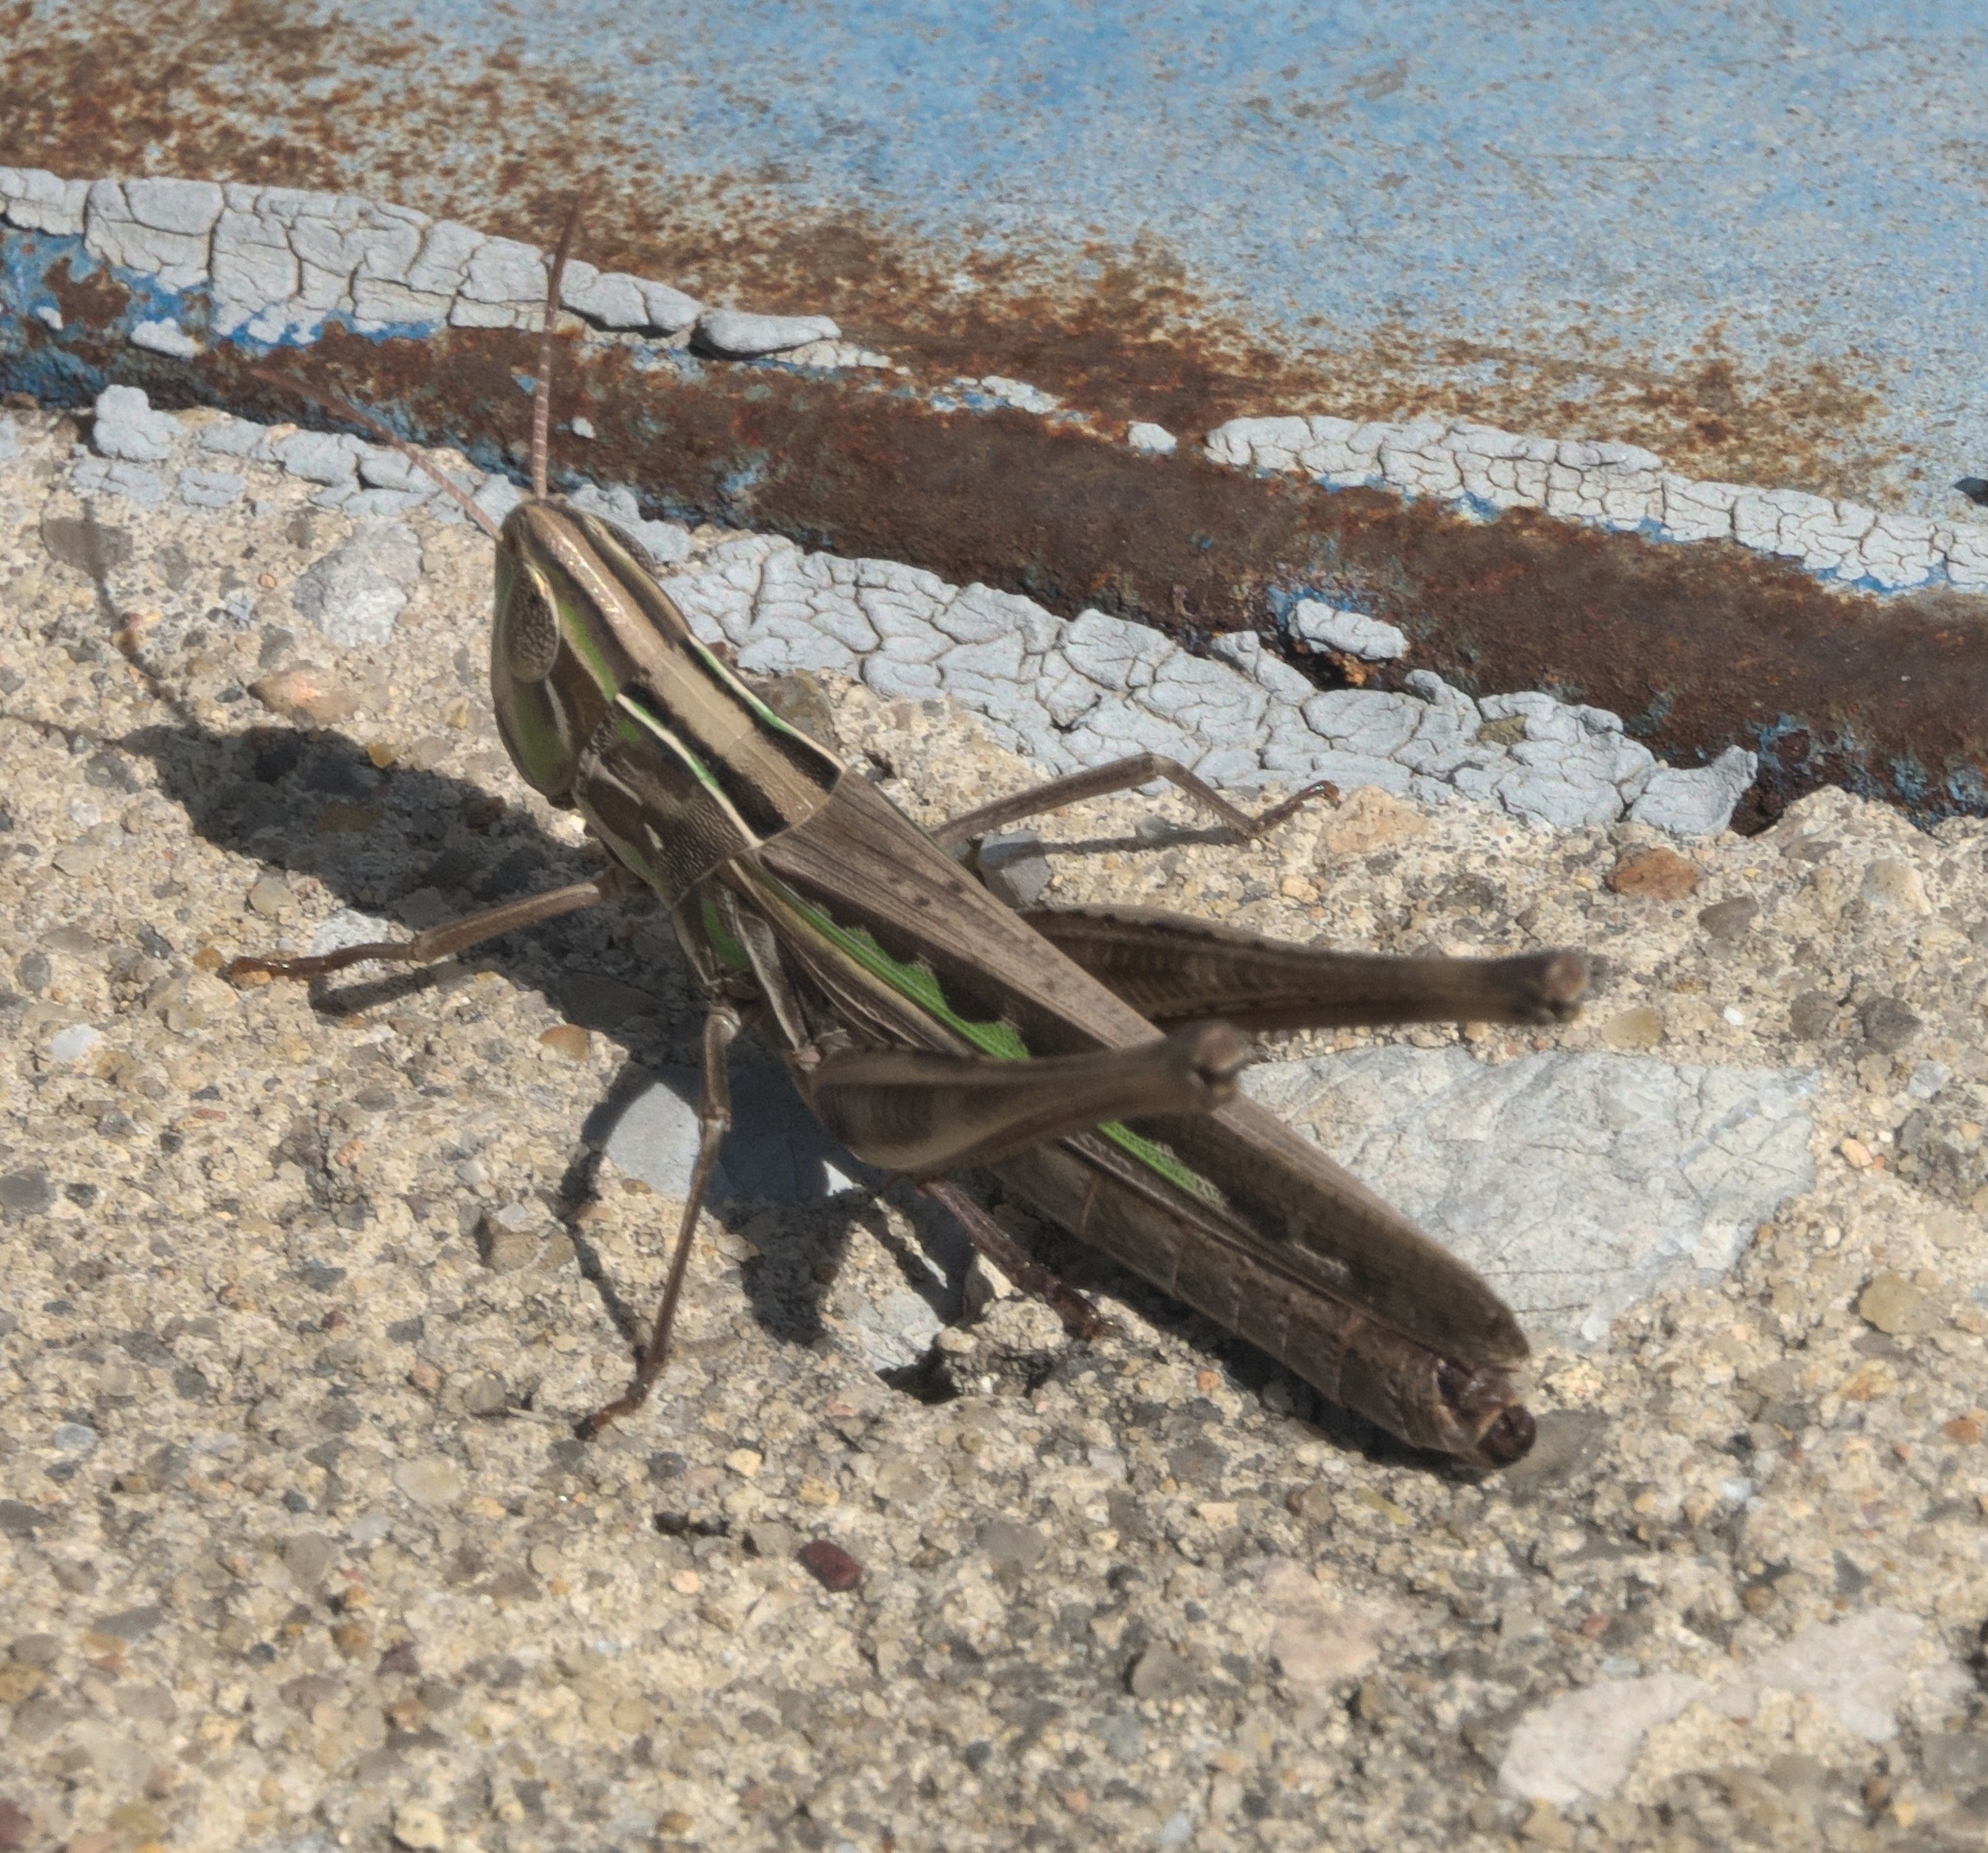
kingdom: Animalia
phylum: Arthropoda
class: Insecta
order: Orthoptera
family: Acrididae
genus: Syrbula
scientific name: Syrbula admirabilis
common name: Handsome grasshopper
